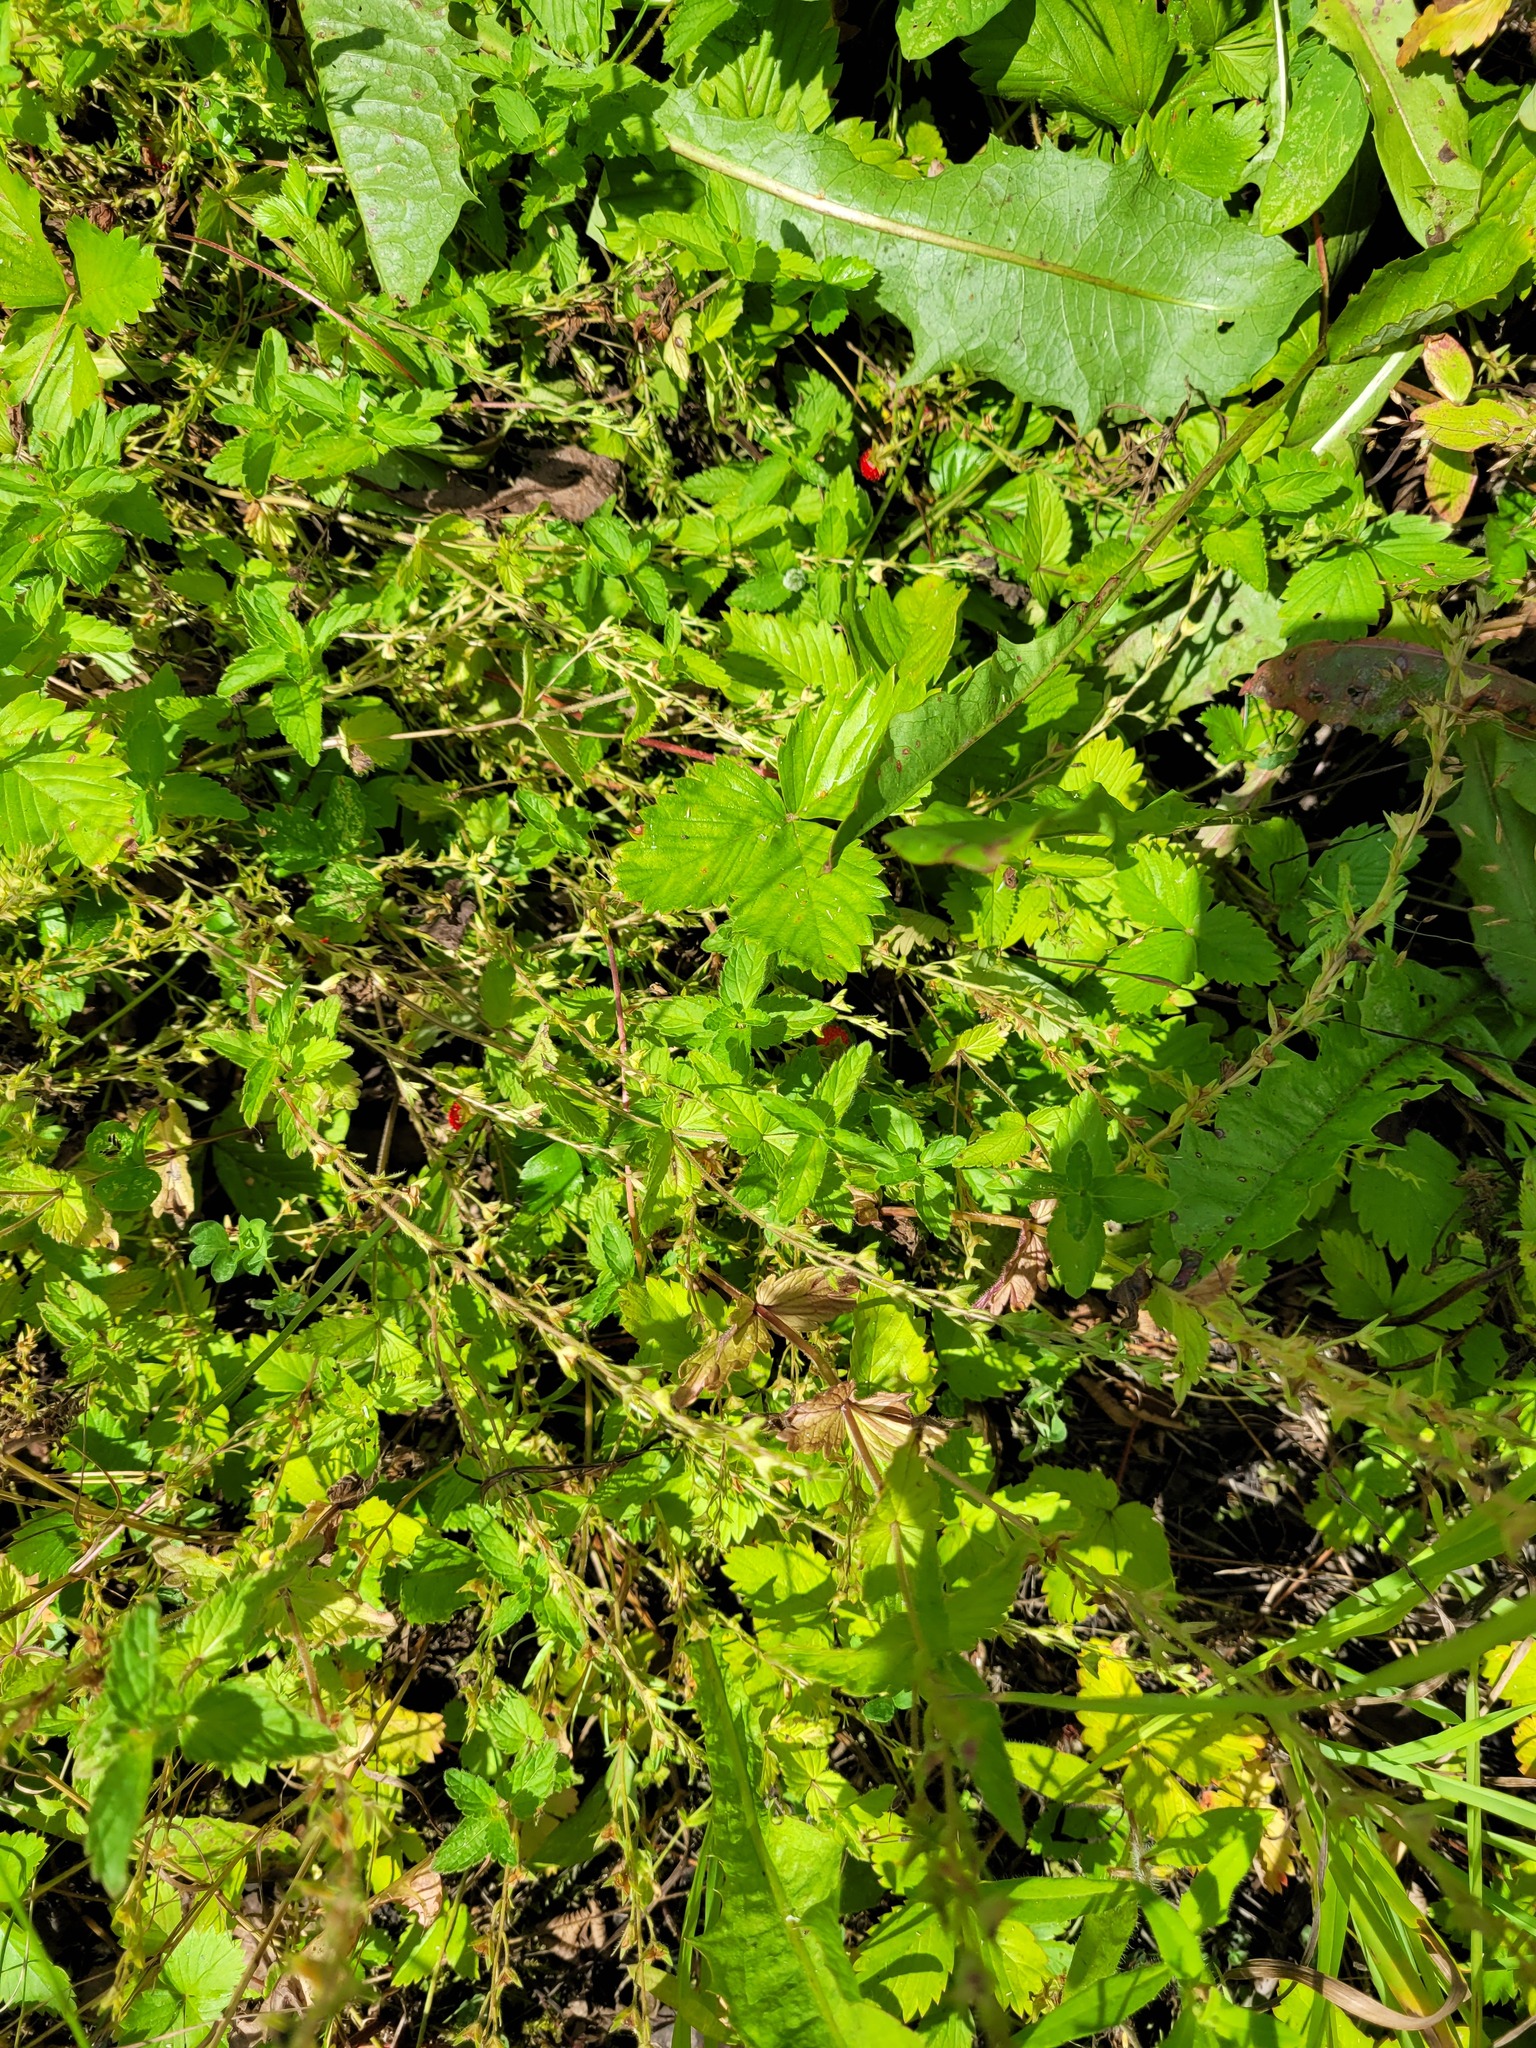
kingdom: Plantae
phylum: Tracheophyta
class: Magnoliopsida
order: Lamiales
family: Plantaginaceae
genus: Veronica
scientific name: Veronica chamaedrys
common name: Germander speedwell
